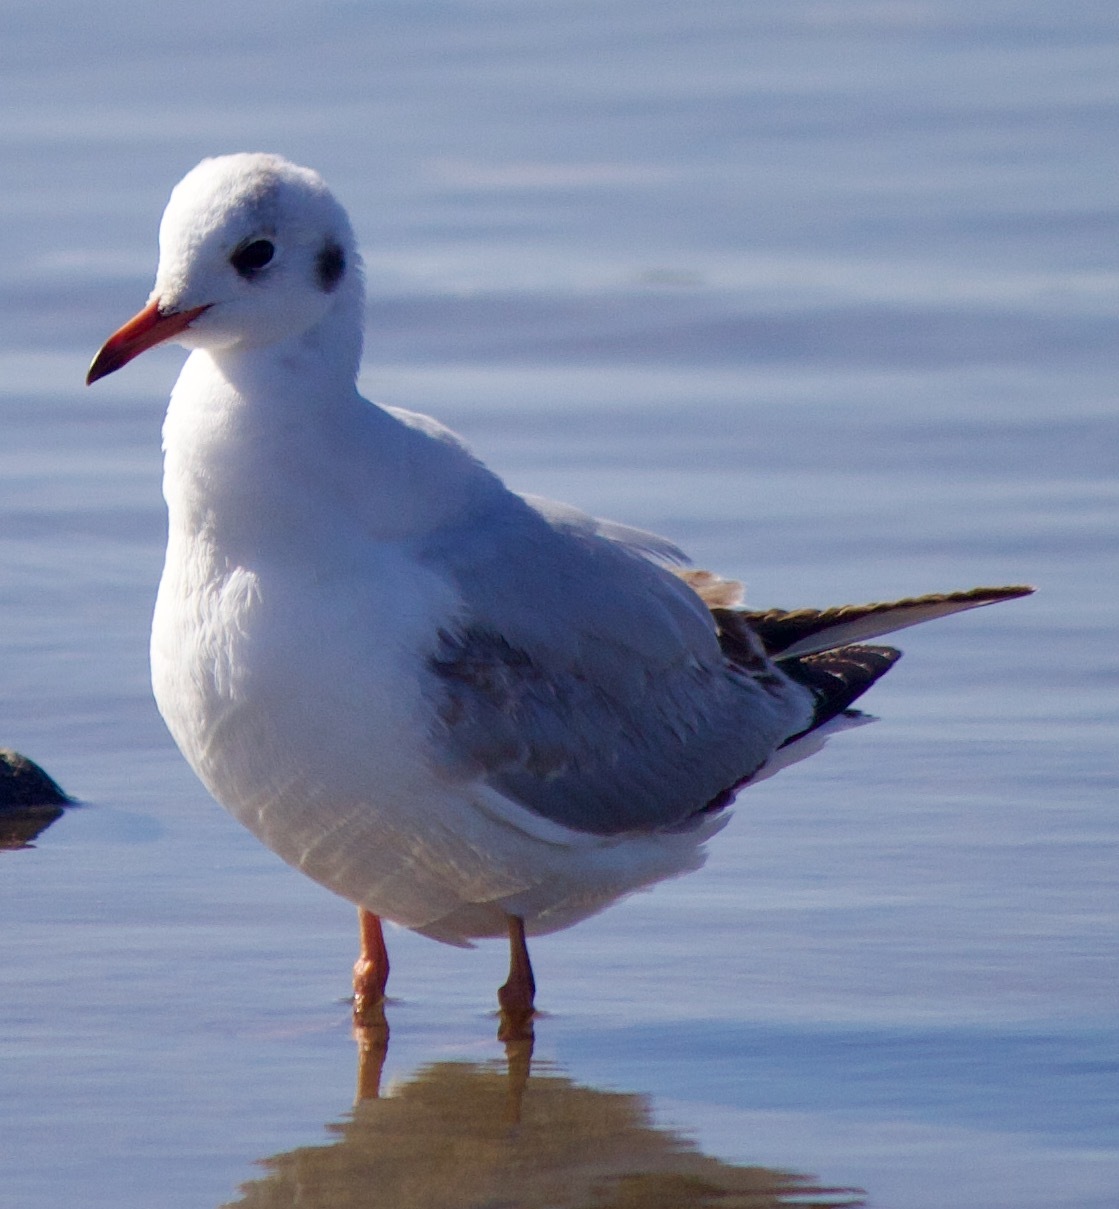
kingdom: Animalia
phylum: Chordata
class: Aves
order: Charadriiformes
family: Laridae
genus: Chroicocephalus
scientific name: Chroicocephalus maculipennis
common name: Brown-hooded gull
